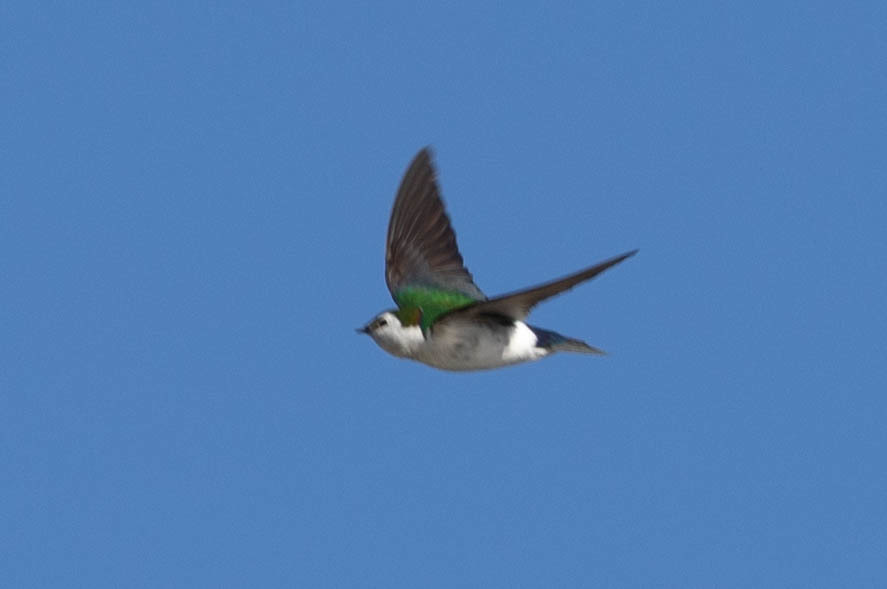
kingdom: Animalia
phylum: Chordata
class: Aves
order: Passeriformes
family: Hirundinidae
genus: Tachycineta
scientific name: Tachycineta thalassina
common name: Violet-green swallow
